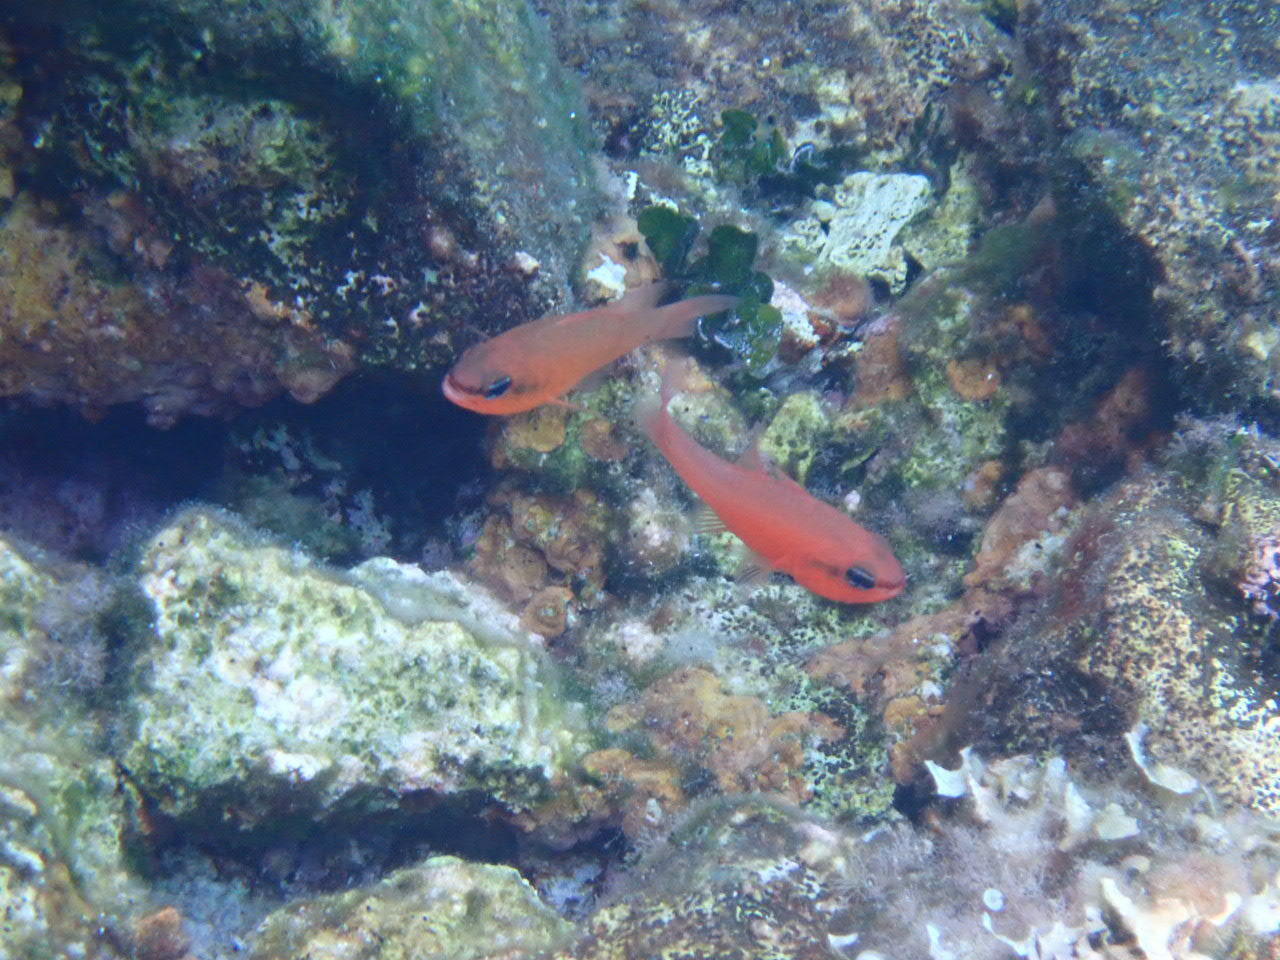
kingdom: Animalia
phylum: Chordata
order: Perciformes
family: Apogonidae
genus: Apogon
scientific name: Apogon imberbis
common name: Cardinal fish
